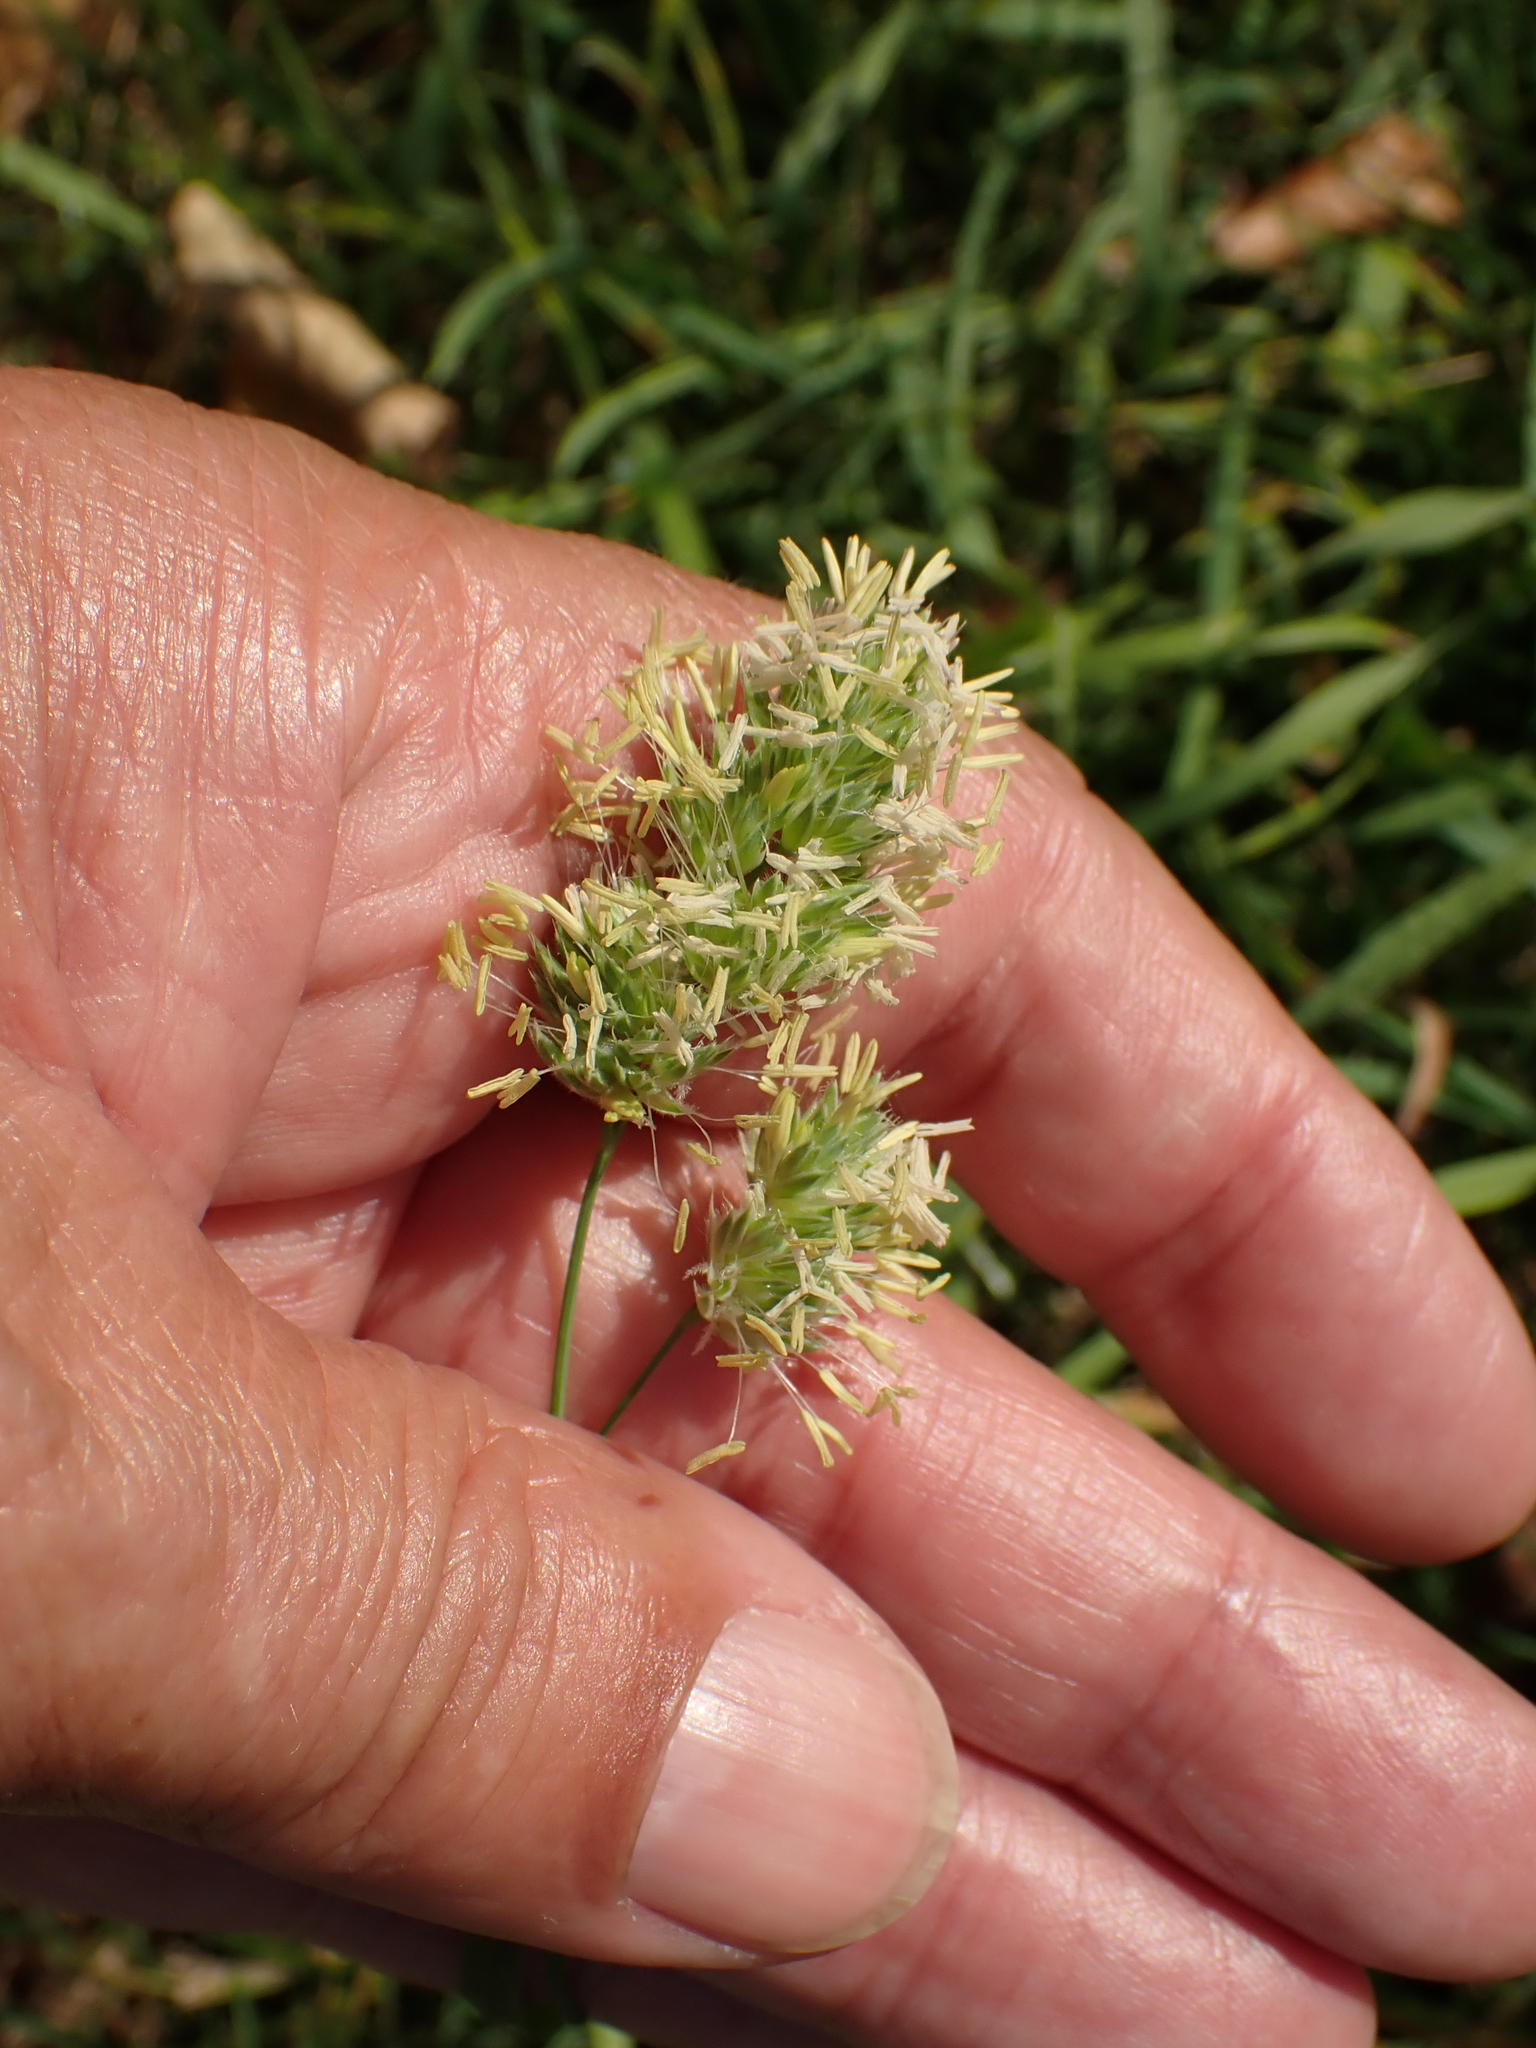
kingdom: Plantae
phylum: Tracheophyta
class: Liliopsida
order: Poales
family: Poaceae
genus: Dactylis
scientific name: Dactylis glomerata
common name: Orchardgrass
